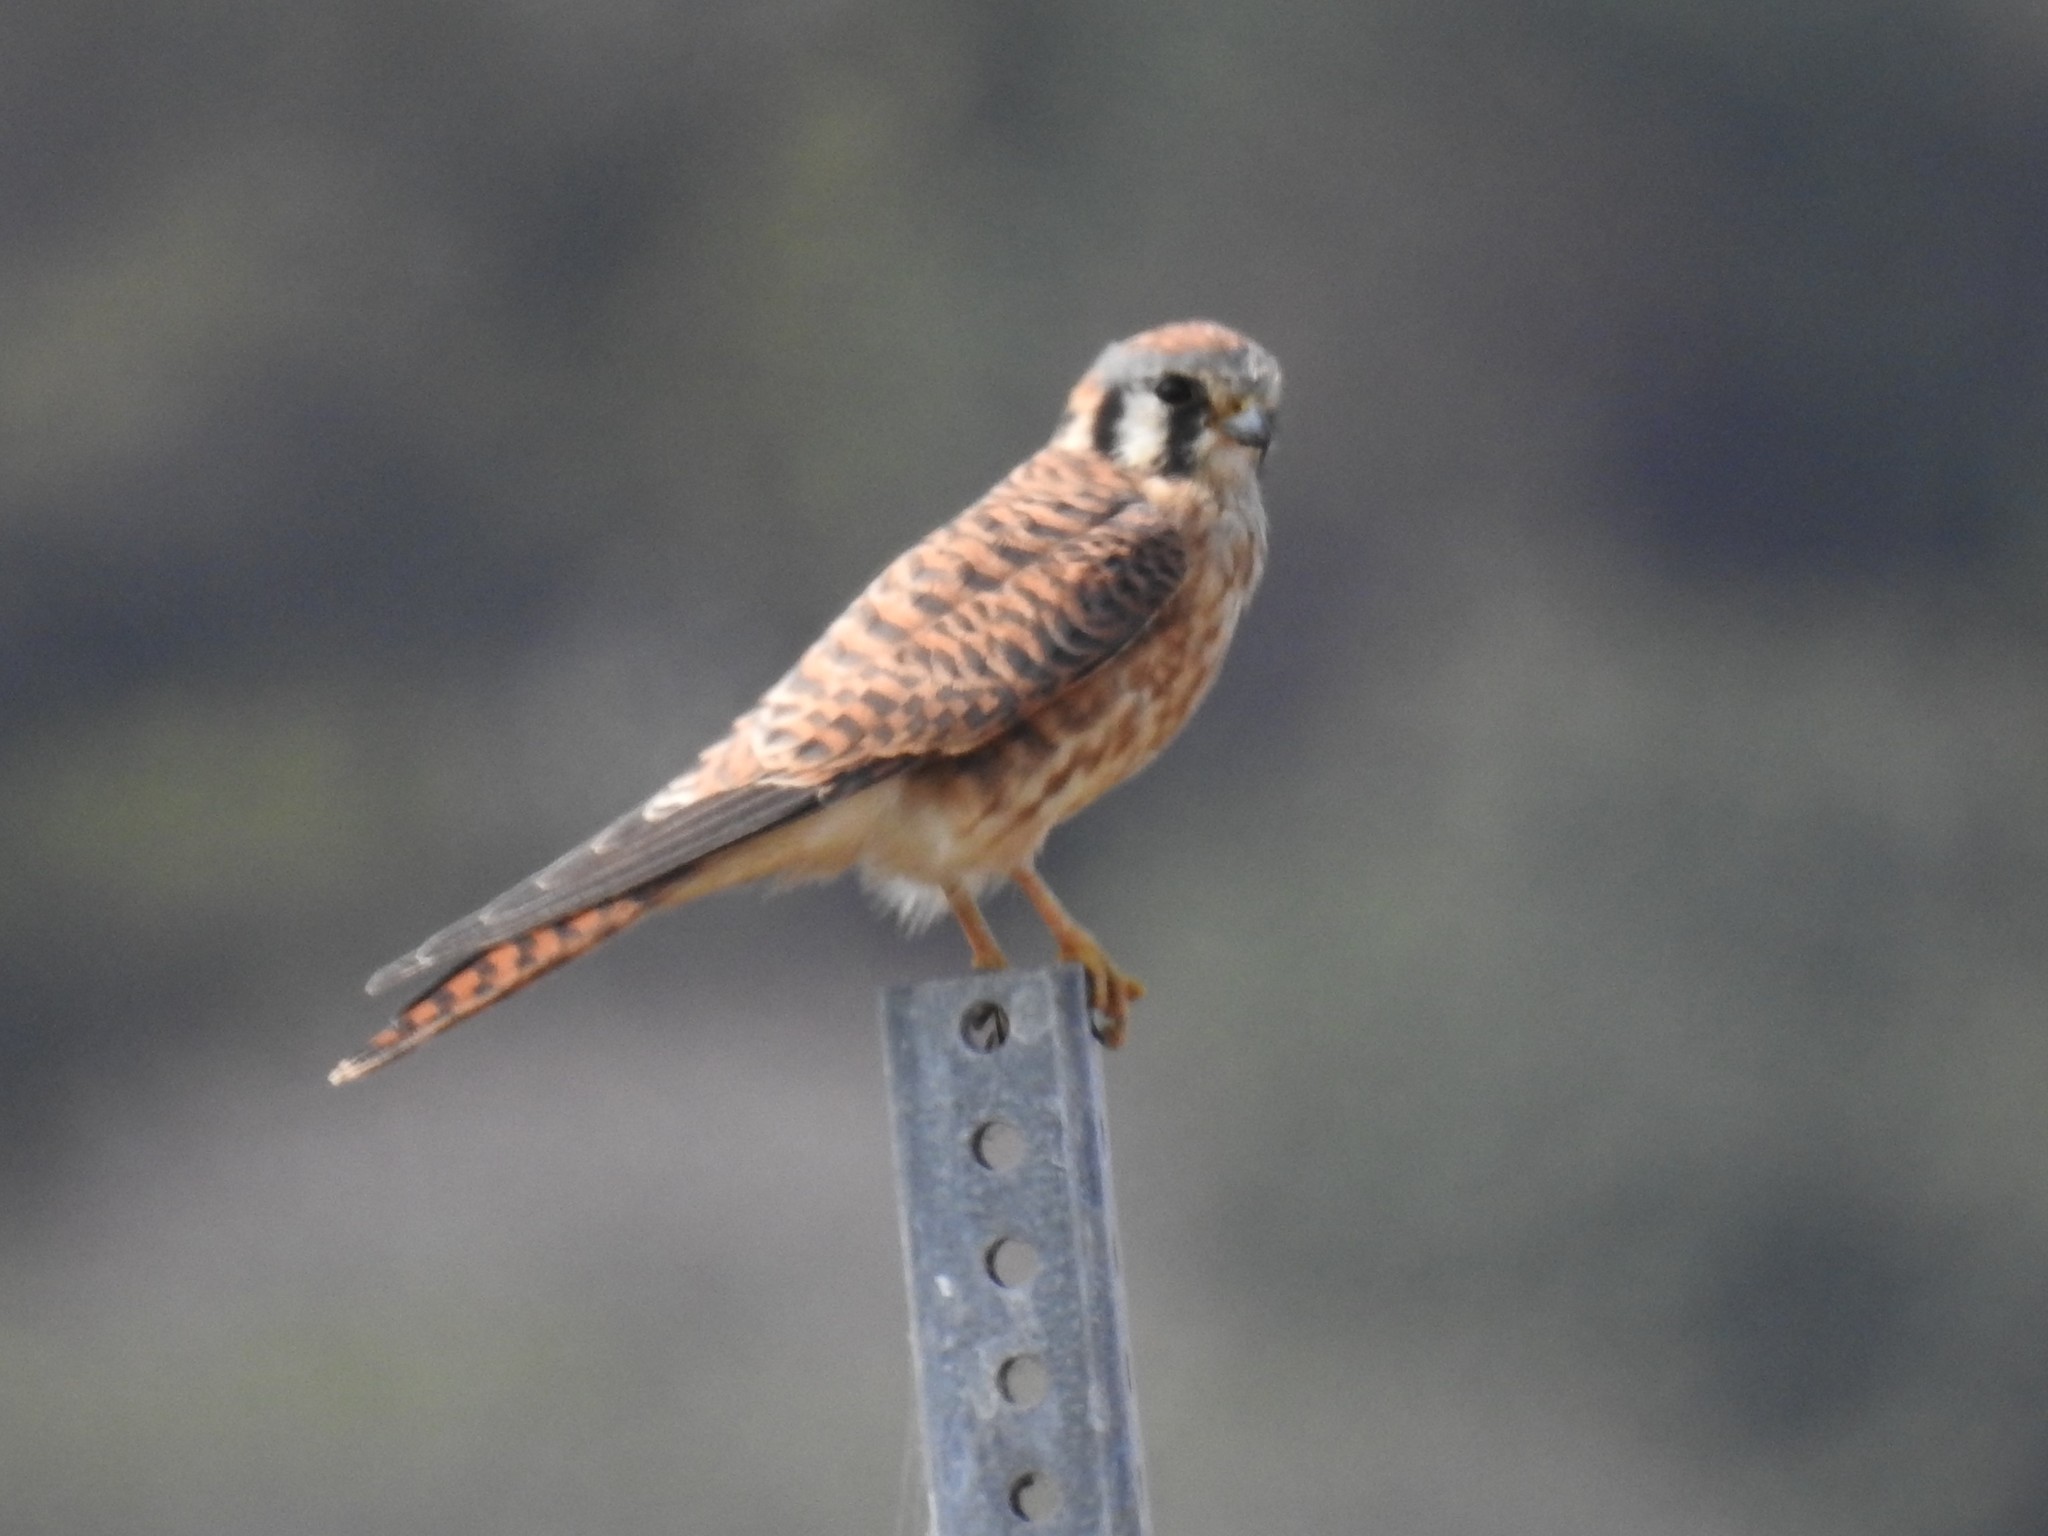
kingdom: Animalia
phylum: Chordata
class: Aves
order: Falconiformes
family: Falconidae
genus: Falco
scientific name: Falco sparverius
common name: American kestrel
